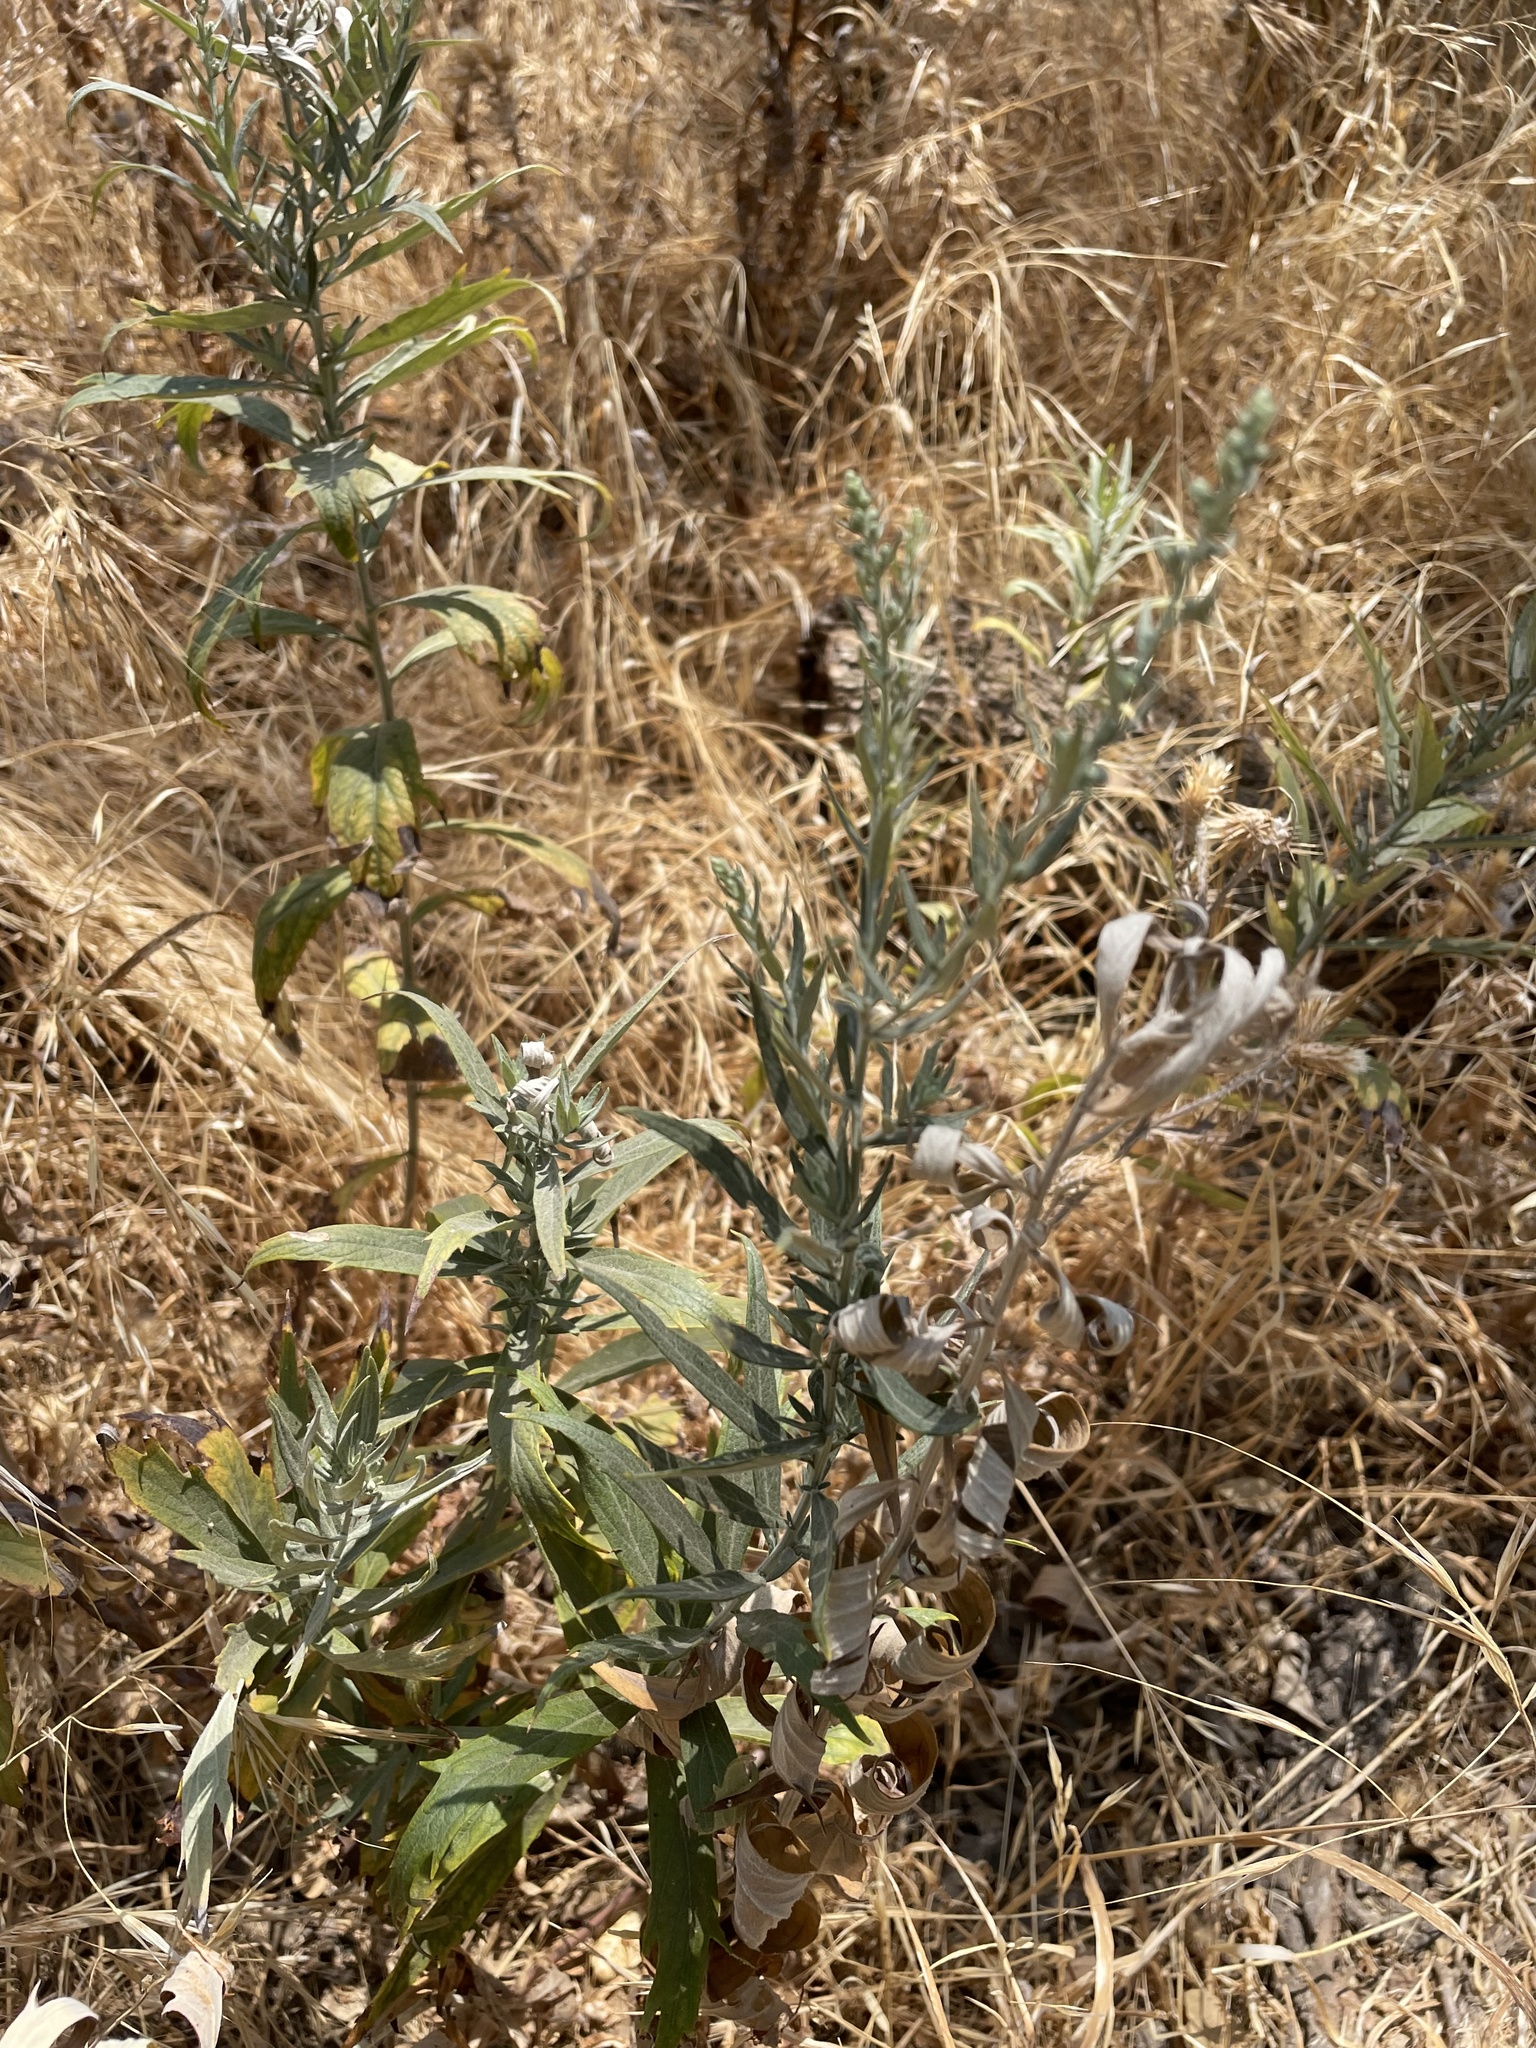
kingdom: Plantae
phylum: Tracheophyta
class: Magnoliopsida
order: Asterales
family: Asteraceae
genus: Artemisia
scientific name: Artemisia douglasiana
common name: Northwest mugwort
